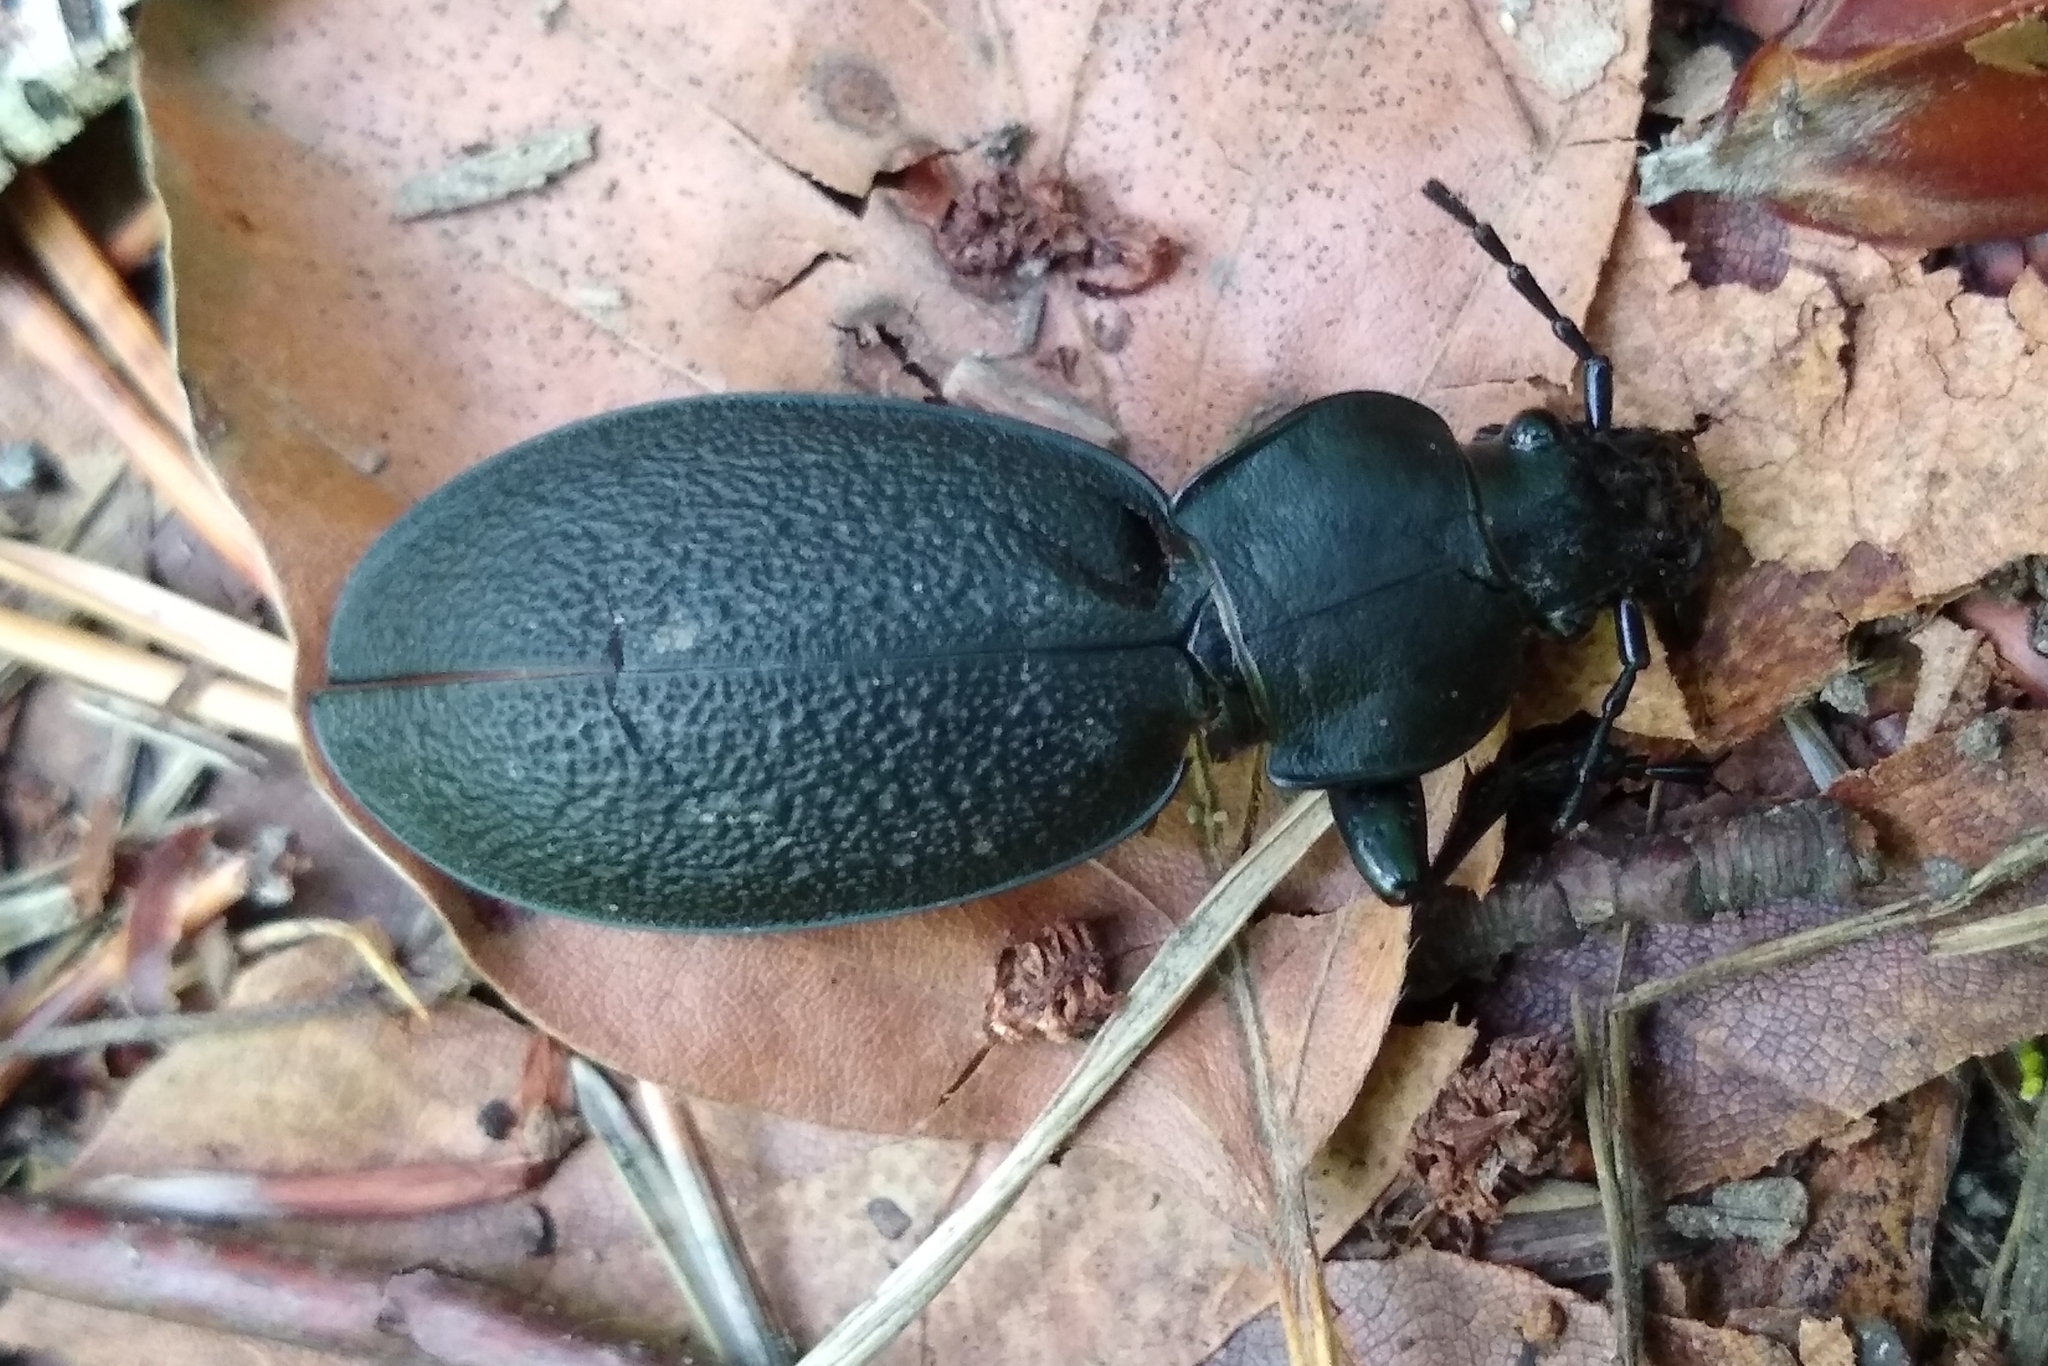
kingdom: Animalia
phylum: Arthropoda
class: Insecta
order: Coleoptera
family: Carabidae
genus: Carabus
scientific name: Carabus coriaceus
